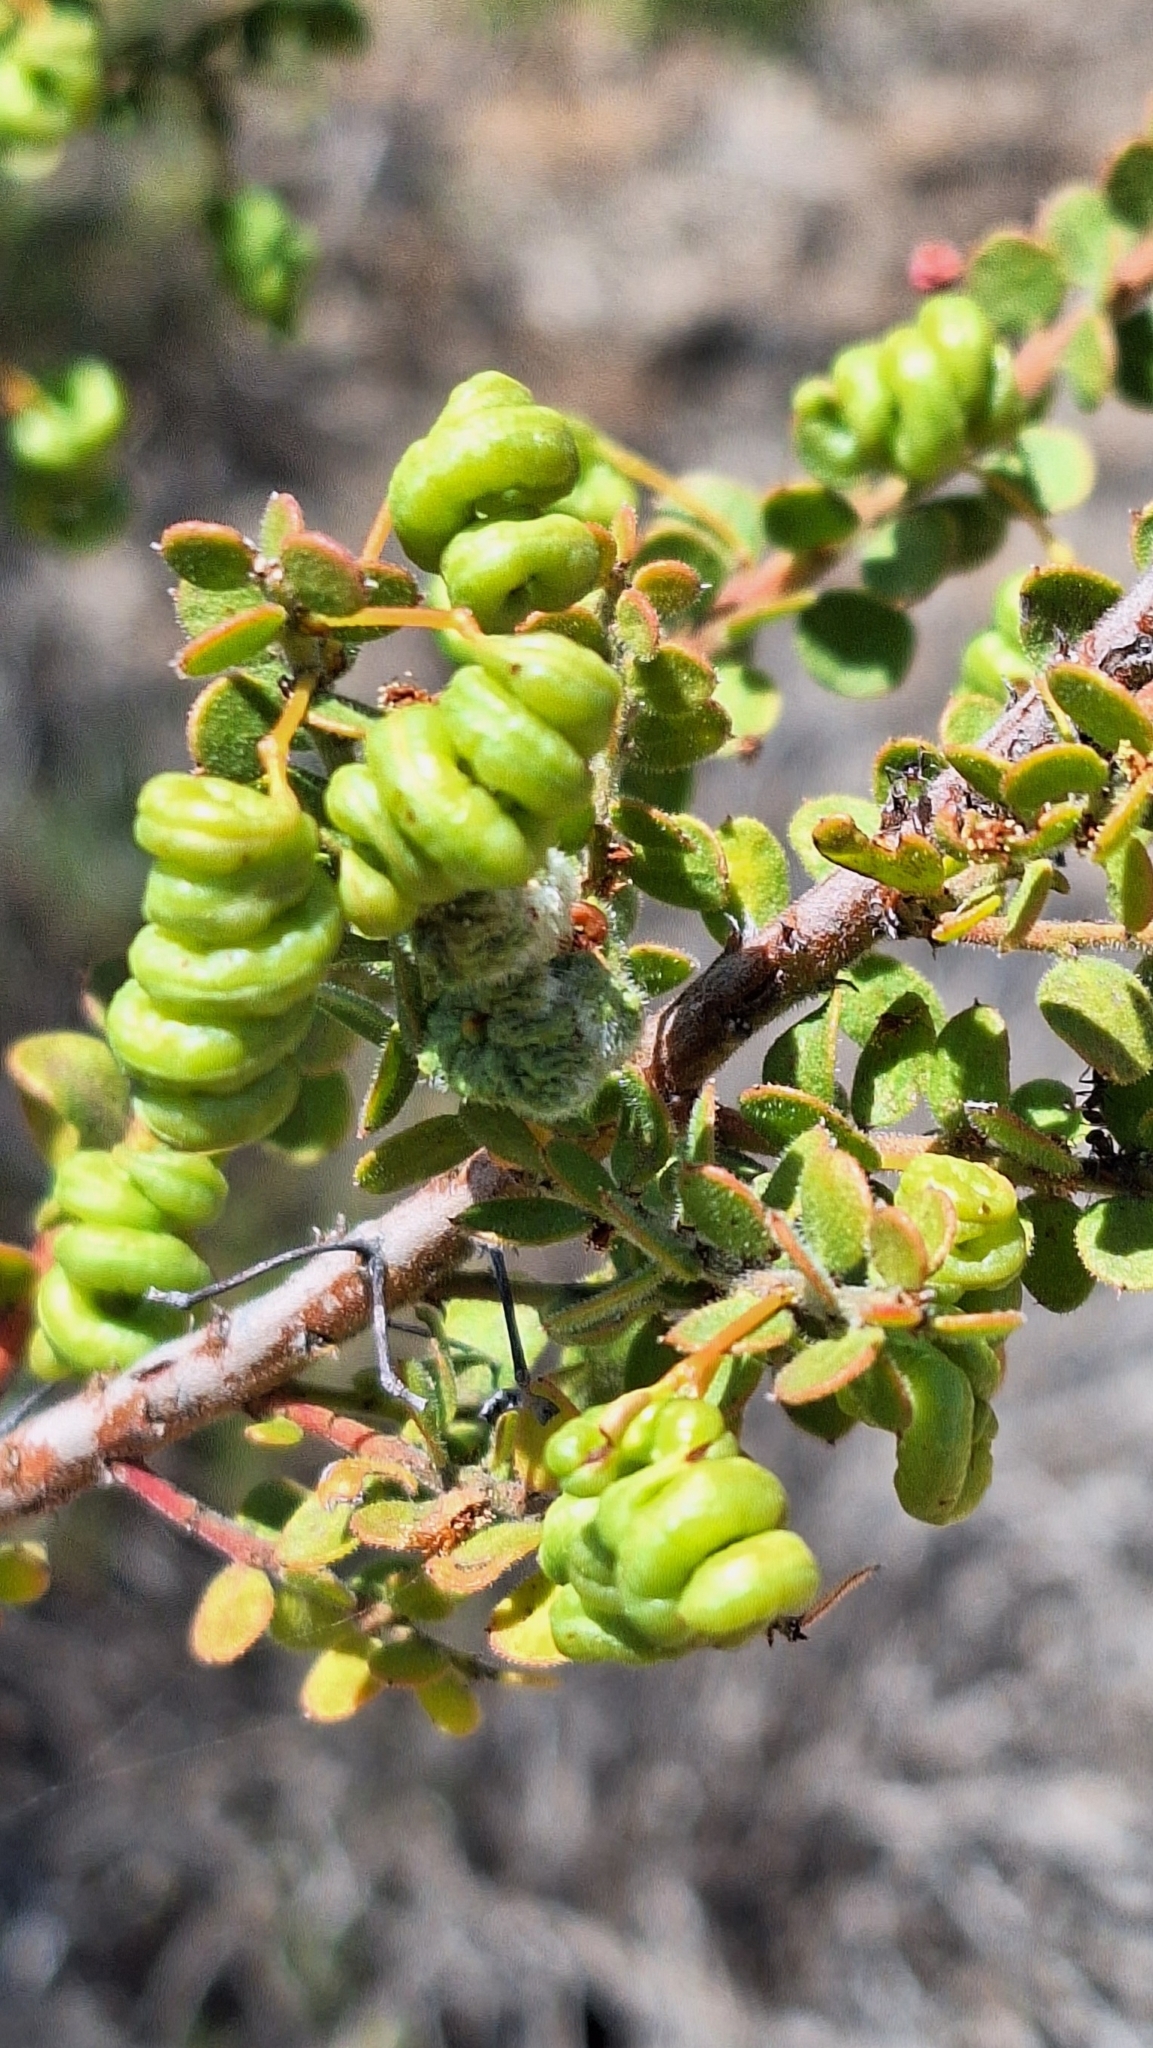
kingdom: Plantae
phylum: Tracheophyta
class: Magnoliopsida
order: Fabales
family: Fabaceae
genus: Acacia
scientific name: Acacia acinacea
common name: Gold-dust acacia
